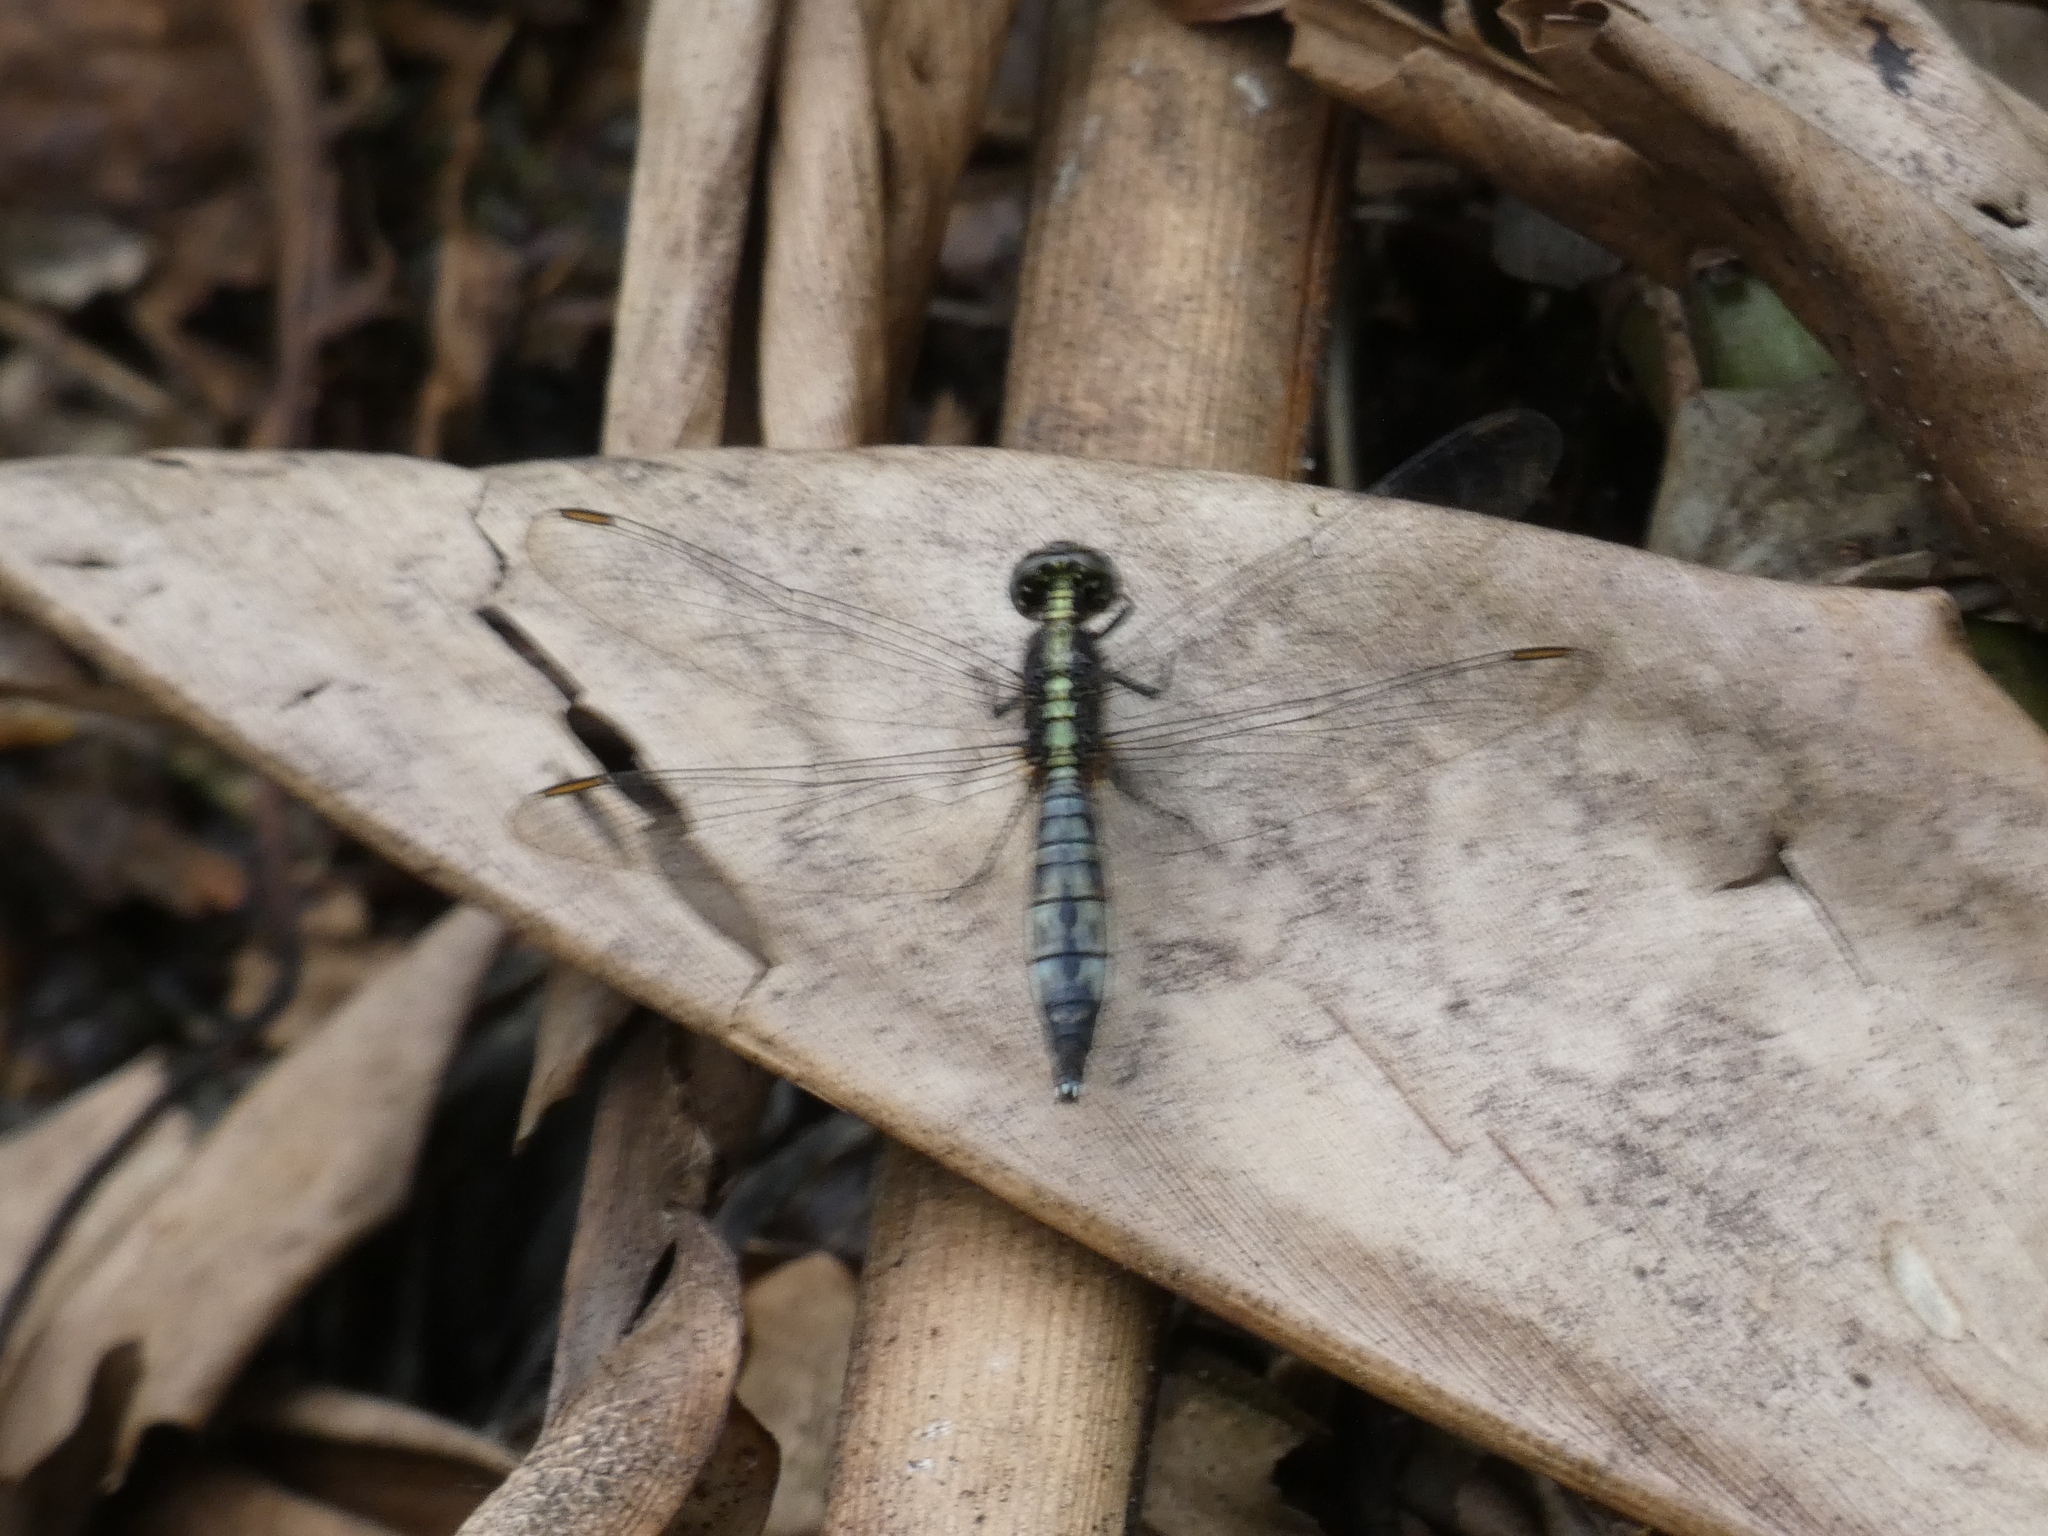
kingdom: Animalia
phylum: Arthropoda
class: Insecta
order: Odonata
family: Libellulidae
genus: Acisoma
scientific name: Acisoma trifidum
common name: Ivory pintail
